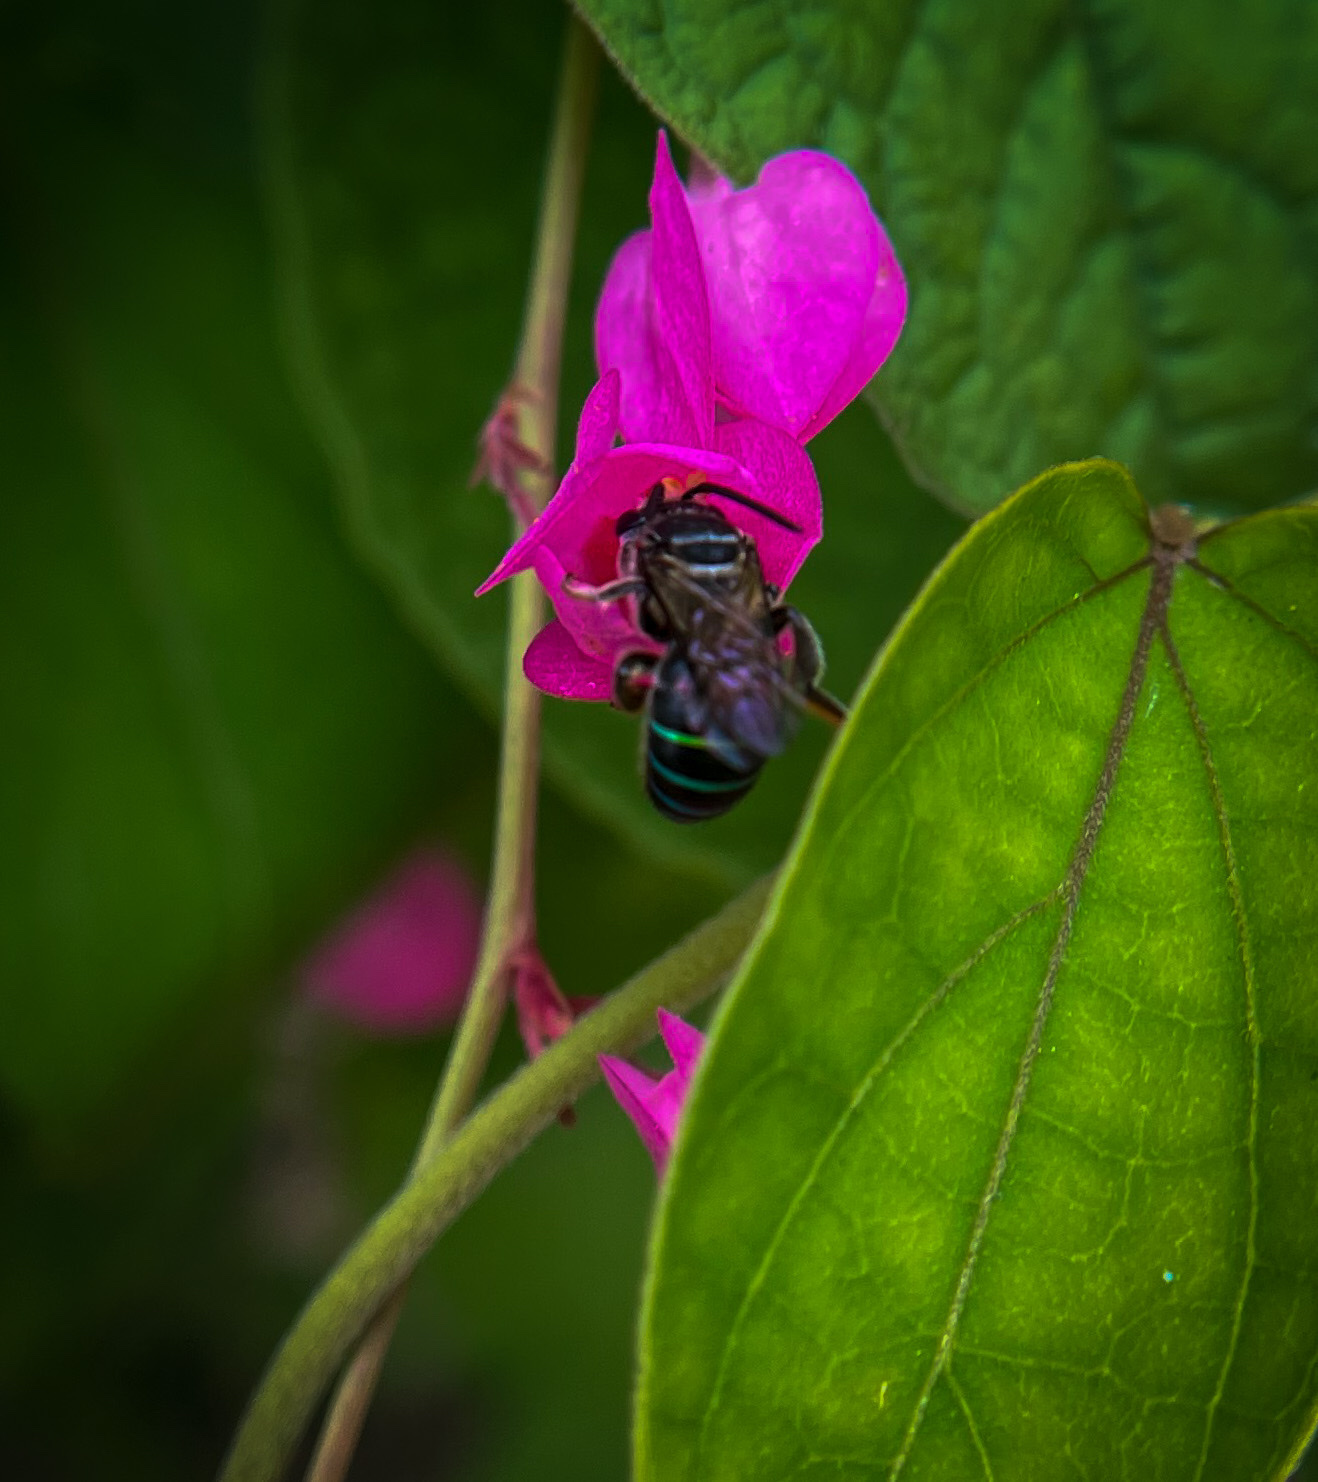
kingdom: Animalia
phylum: Arthropoda
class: Insecta
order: Hymenoptera
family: Halictidae
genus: Nomia
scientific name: Nomia iridescens
